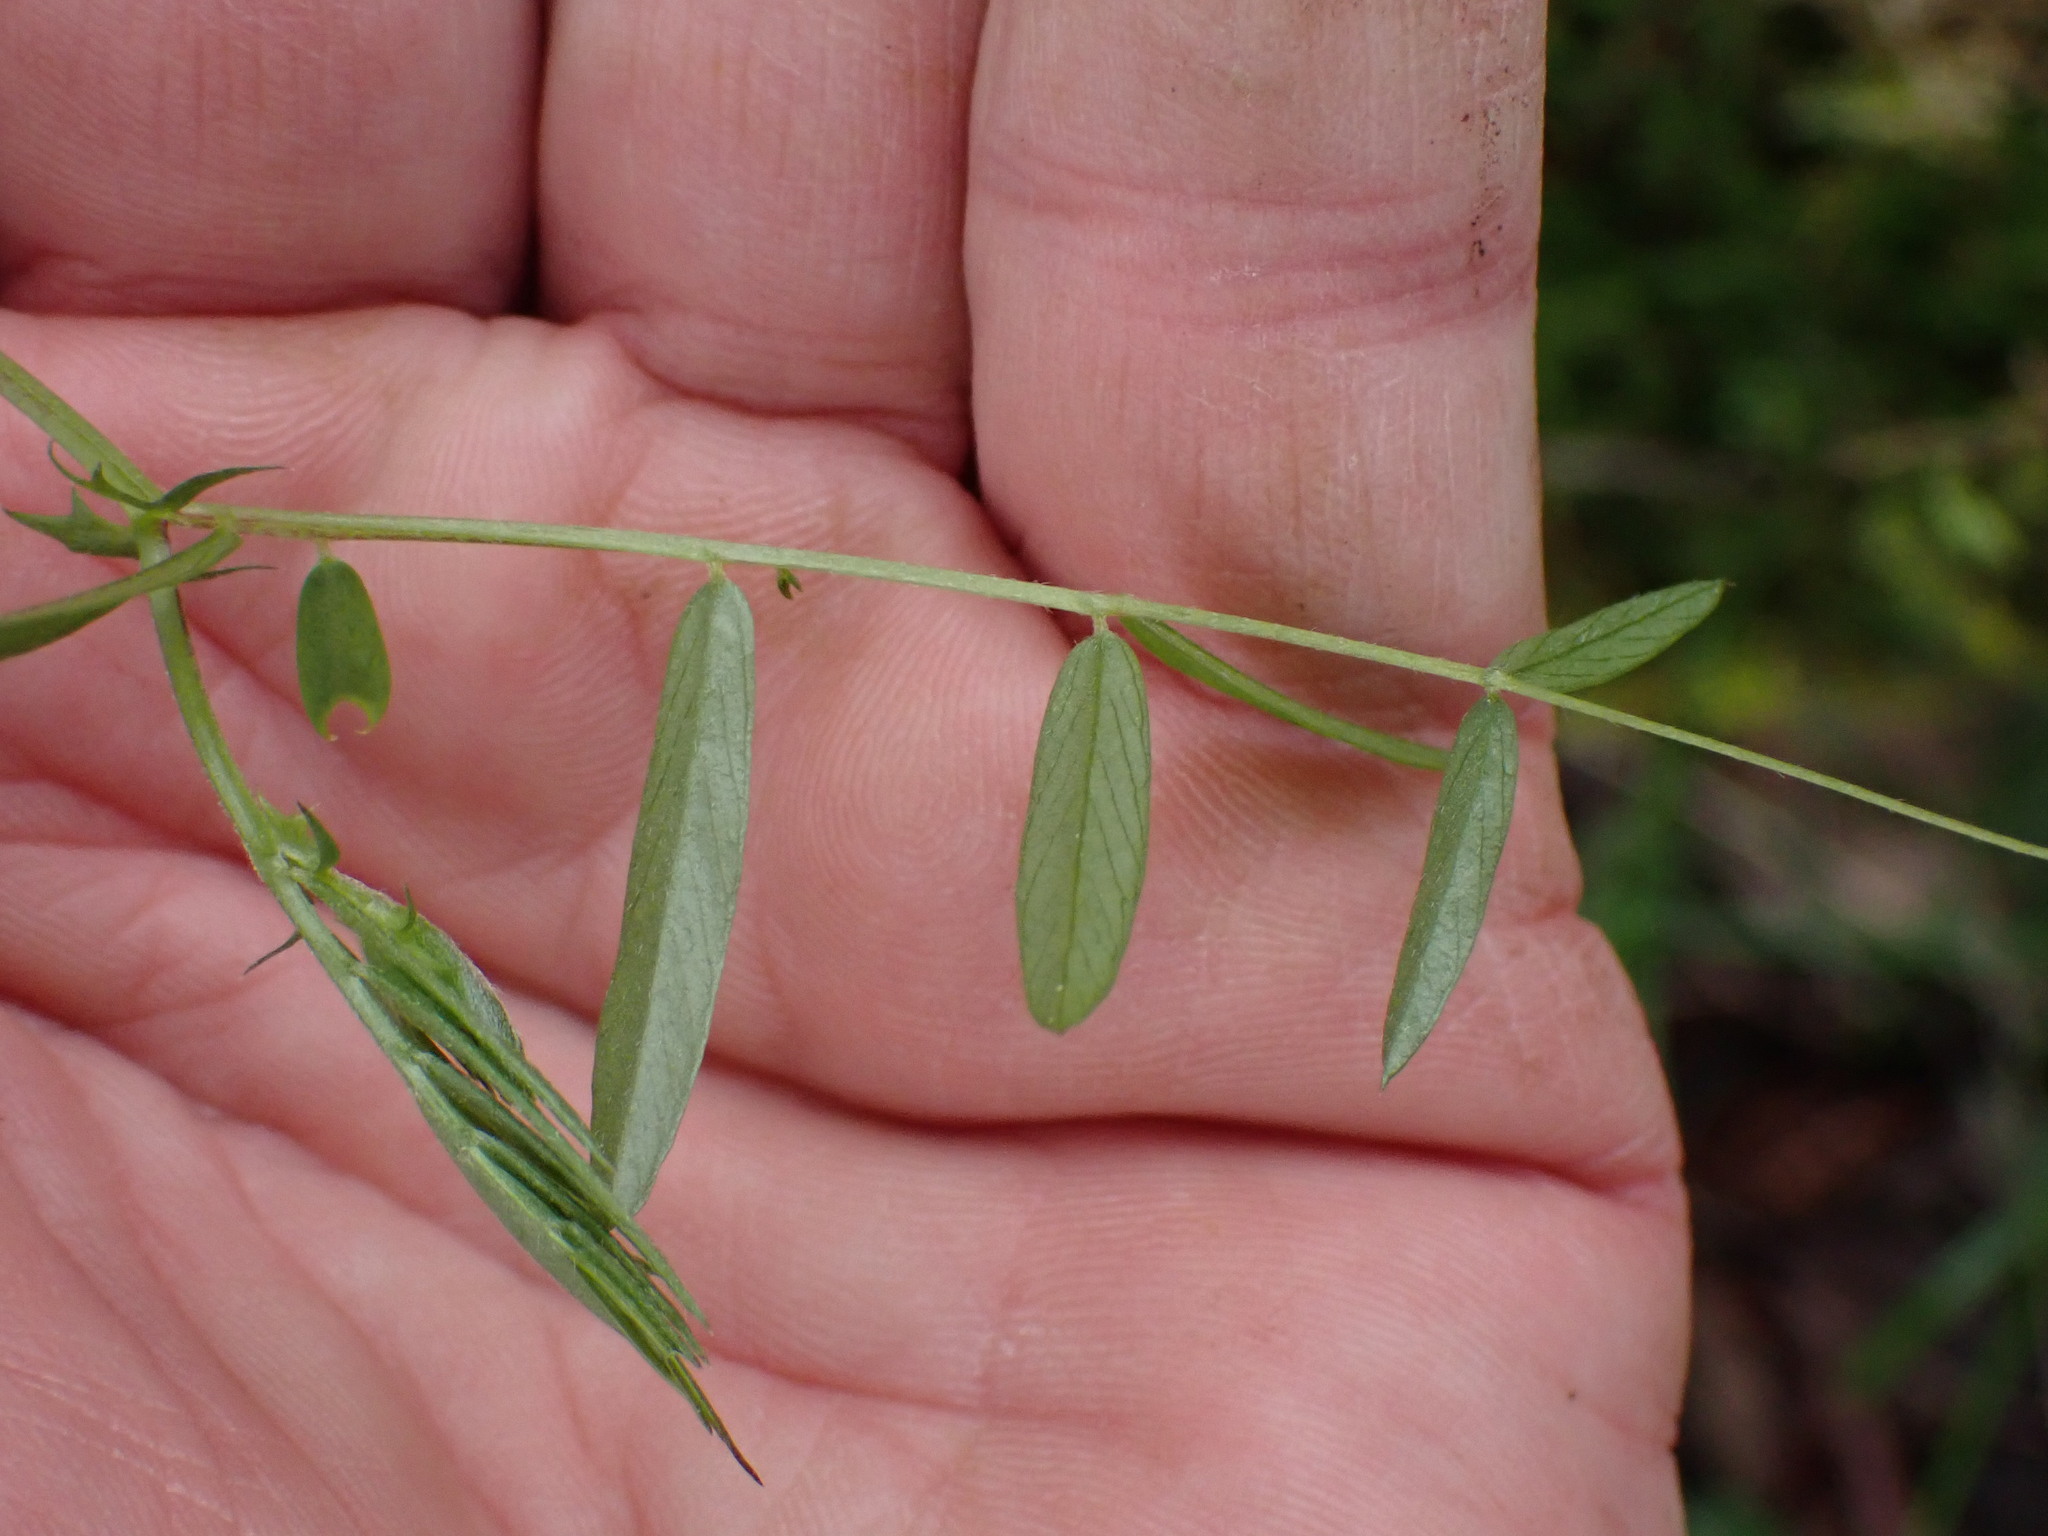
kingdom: Plantae
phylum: Tracheophyta
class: Magnoliopsida
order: Fabales
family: Fabaceae
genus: Vicia
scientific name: Vicia americana
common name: American vetch
